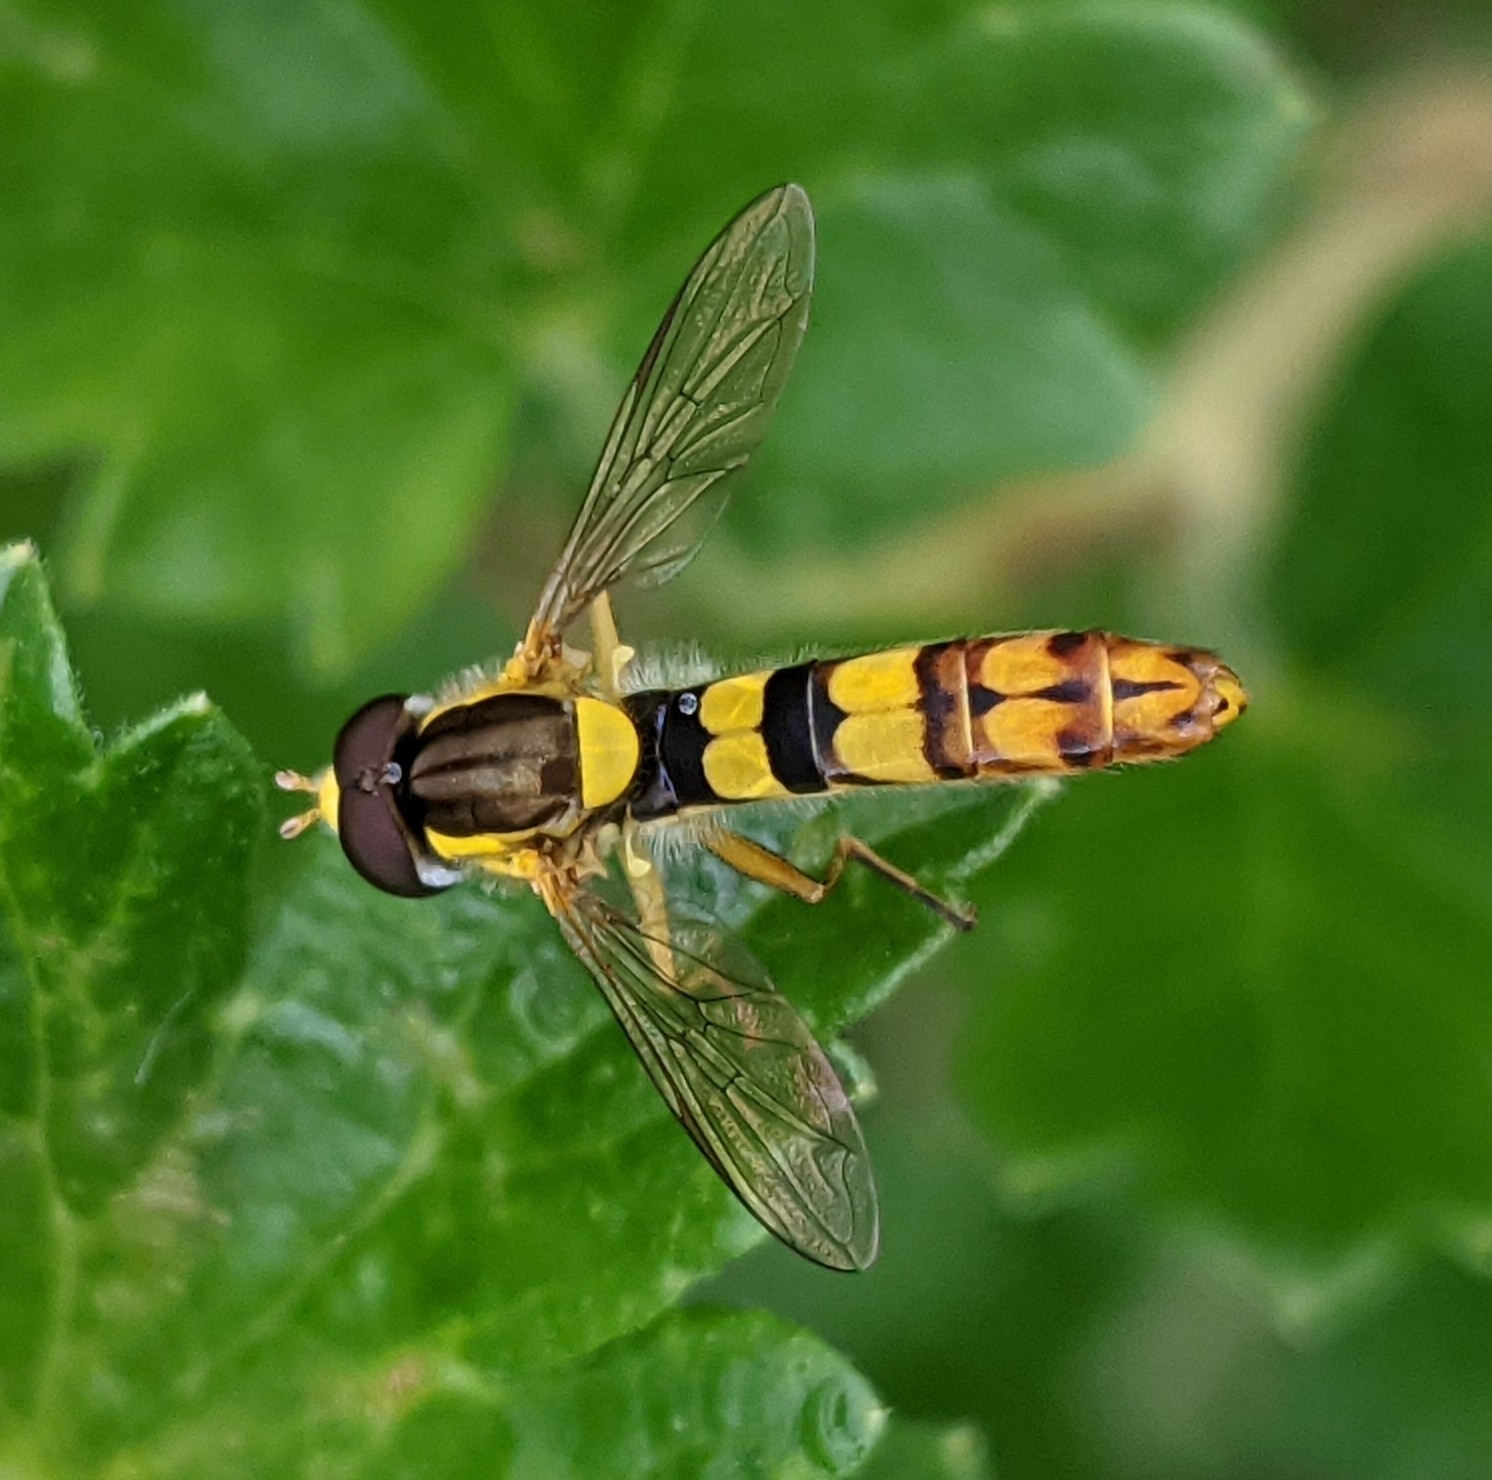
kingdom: Animalia
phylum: Arthropoda
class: Insecta
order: Diptera
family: Syrphidae
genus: Sphaerophoria
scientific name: Sphaerophoria scripta
